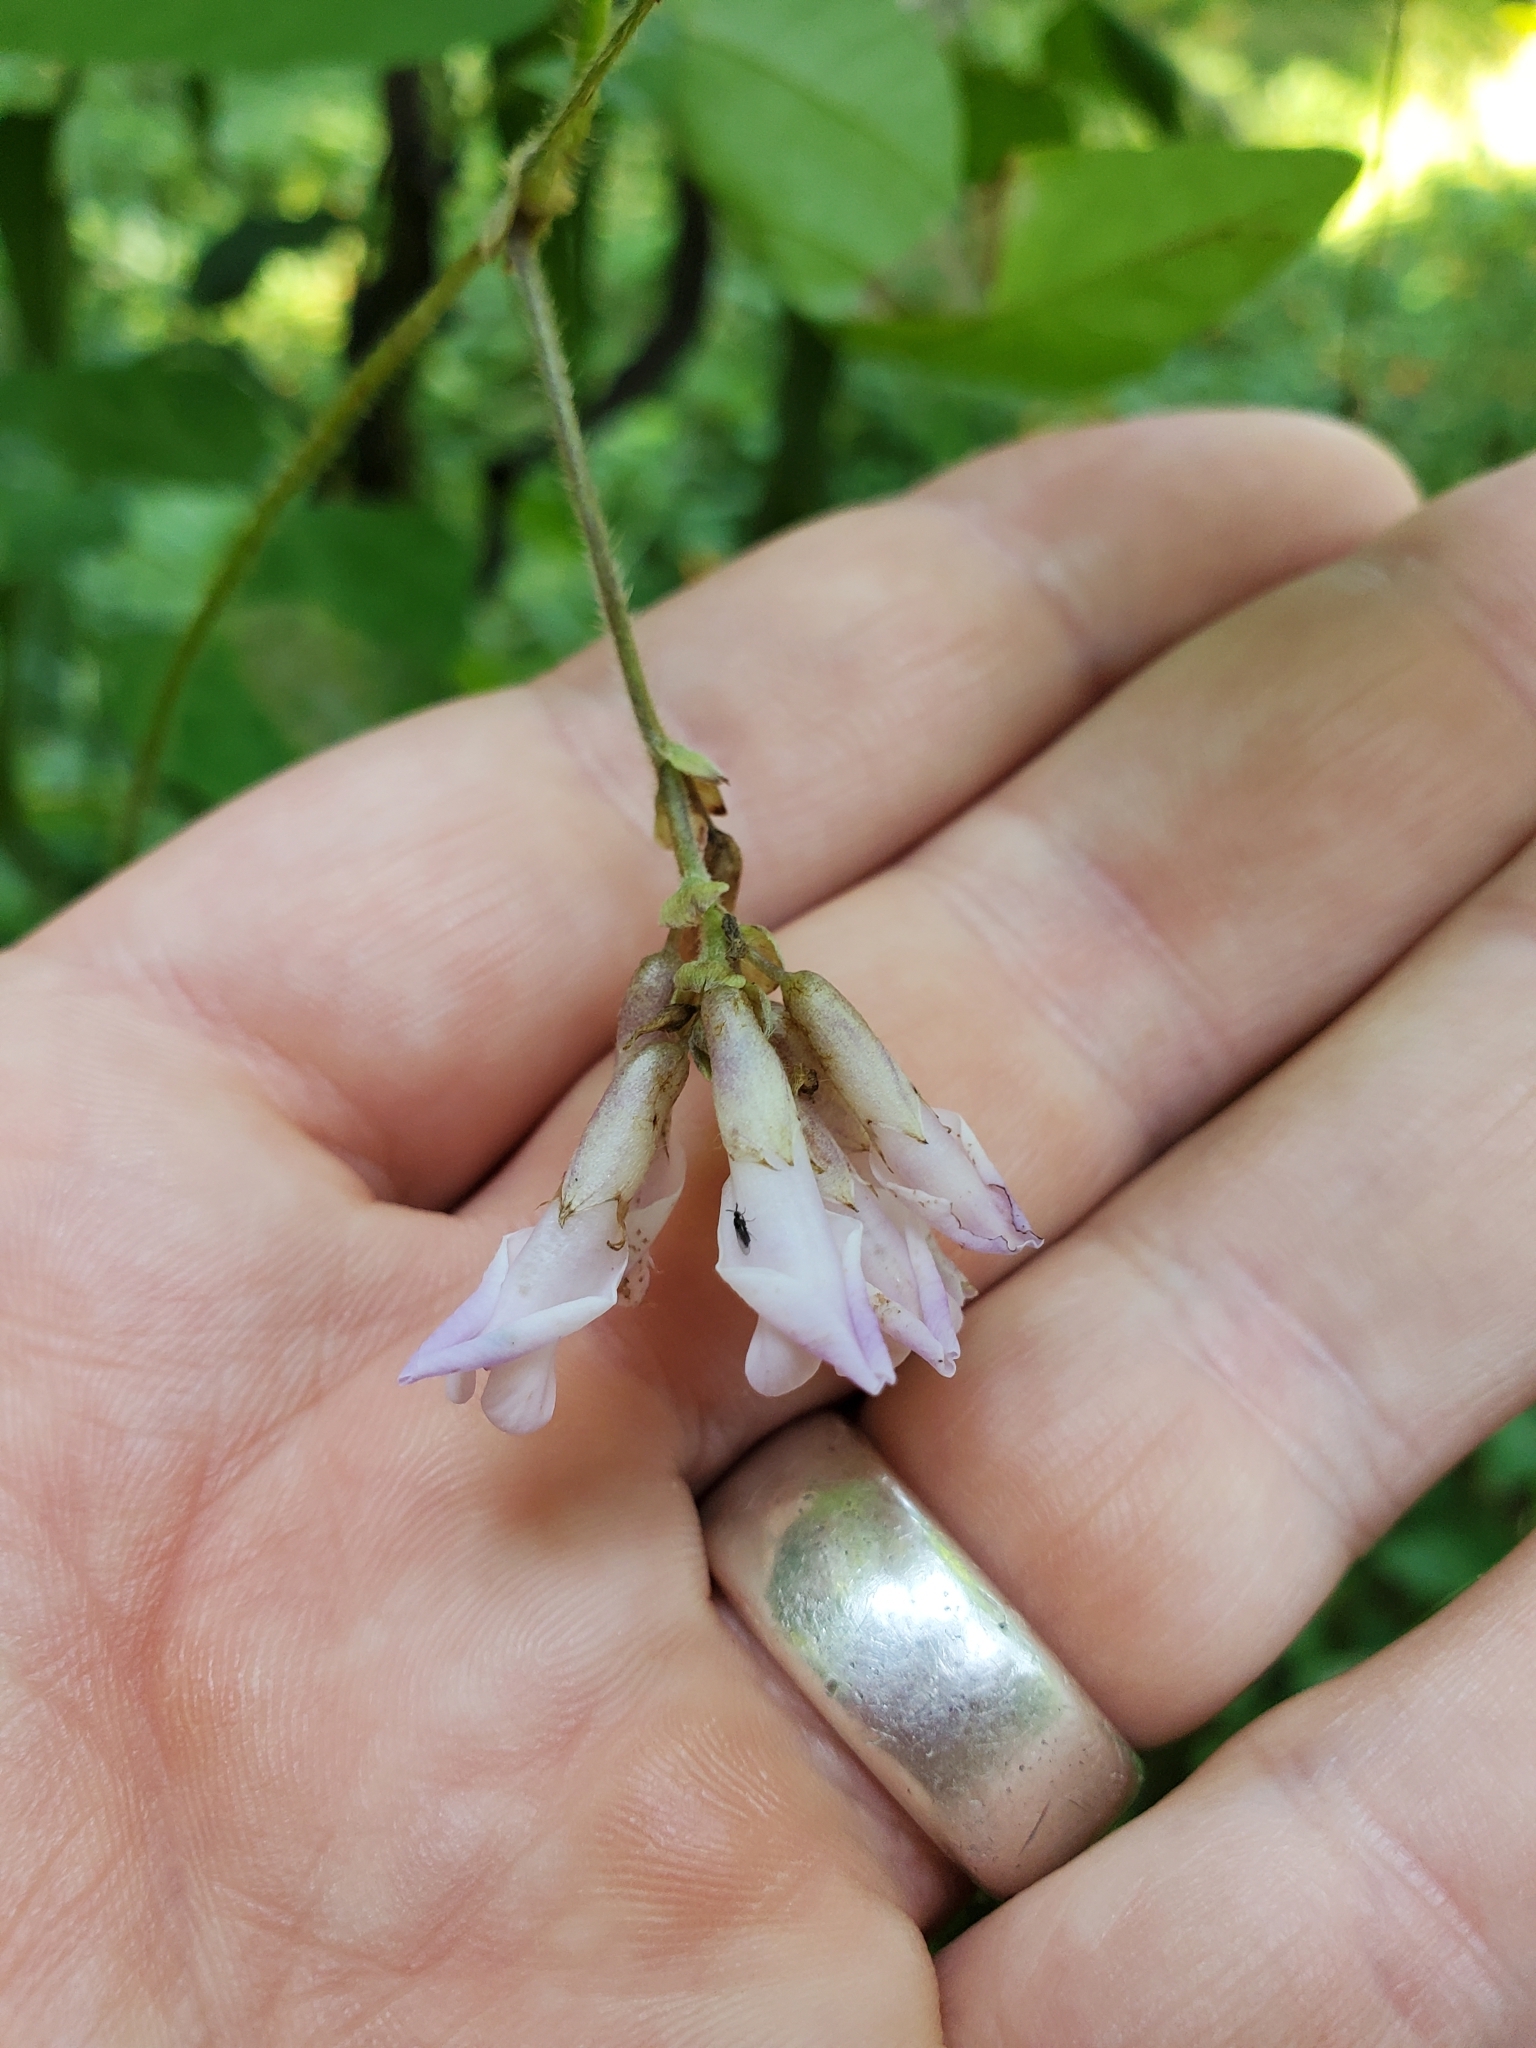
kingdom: Plantae
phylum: Tracheophyta
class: Magnoliopsida
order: Fabales
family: Fabaceae
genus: Amphicarpaea
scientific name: Amphicarpaea bracteata
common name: American hog peanut
